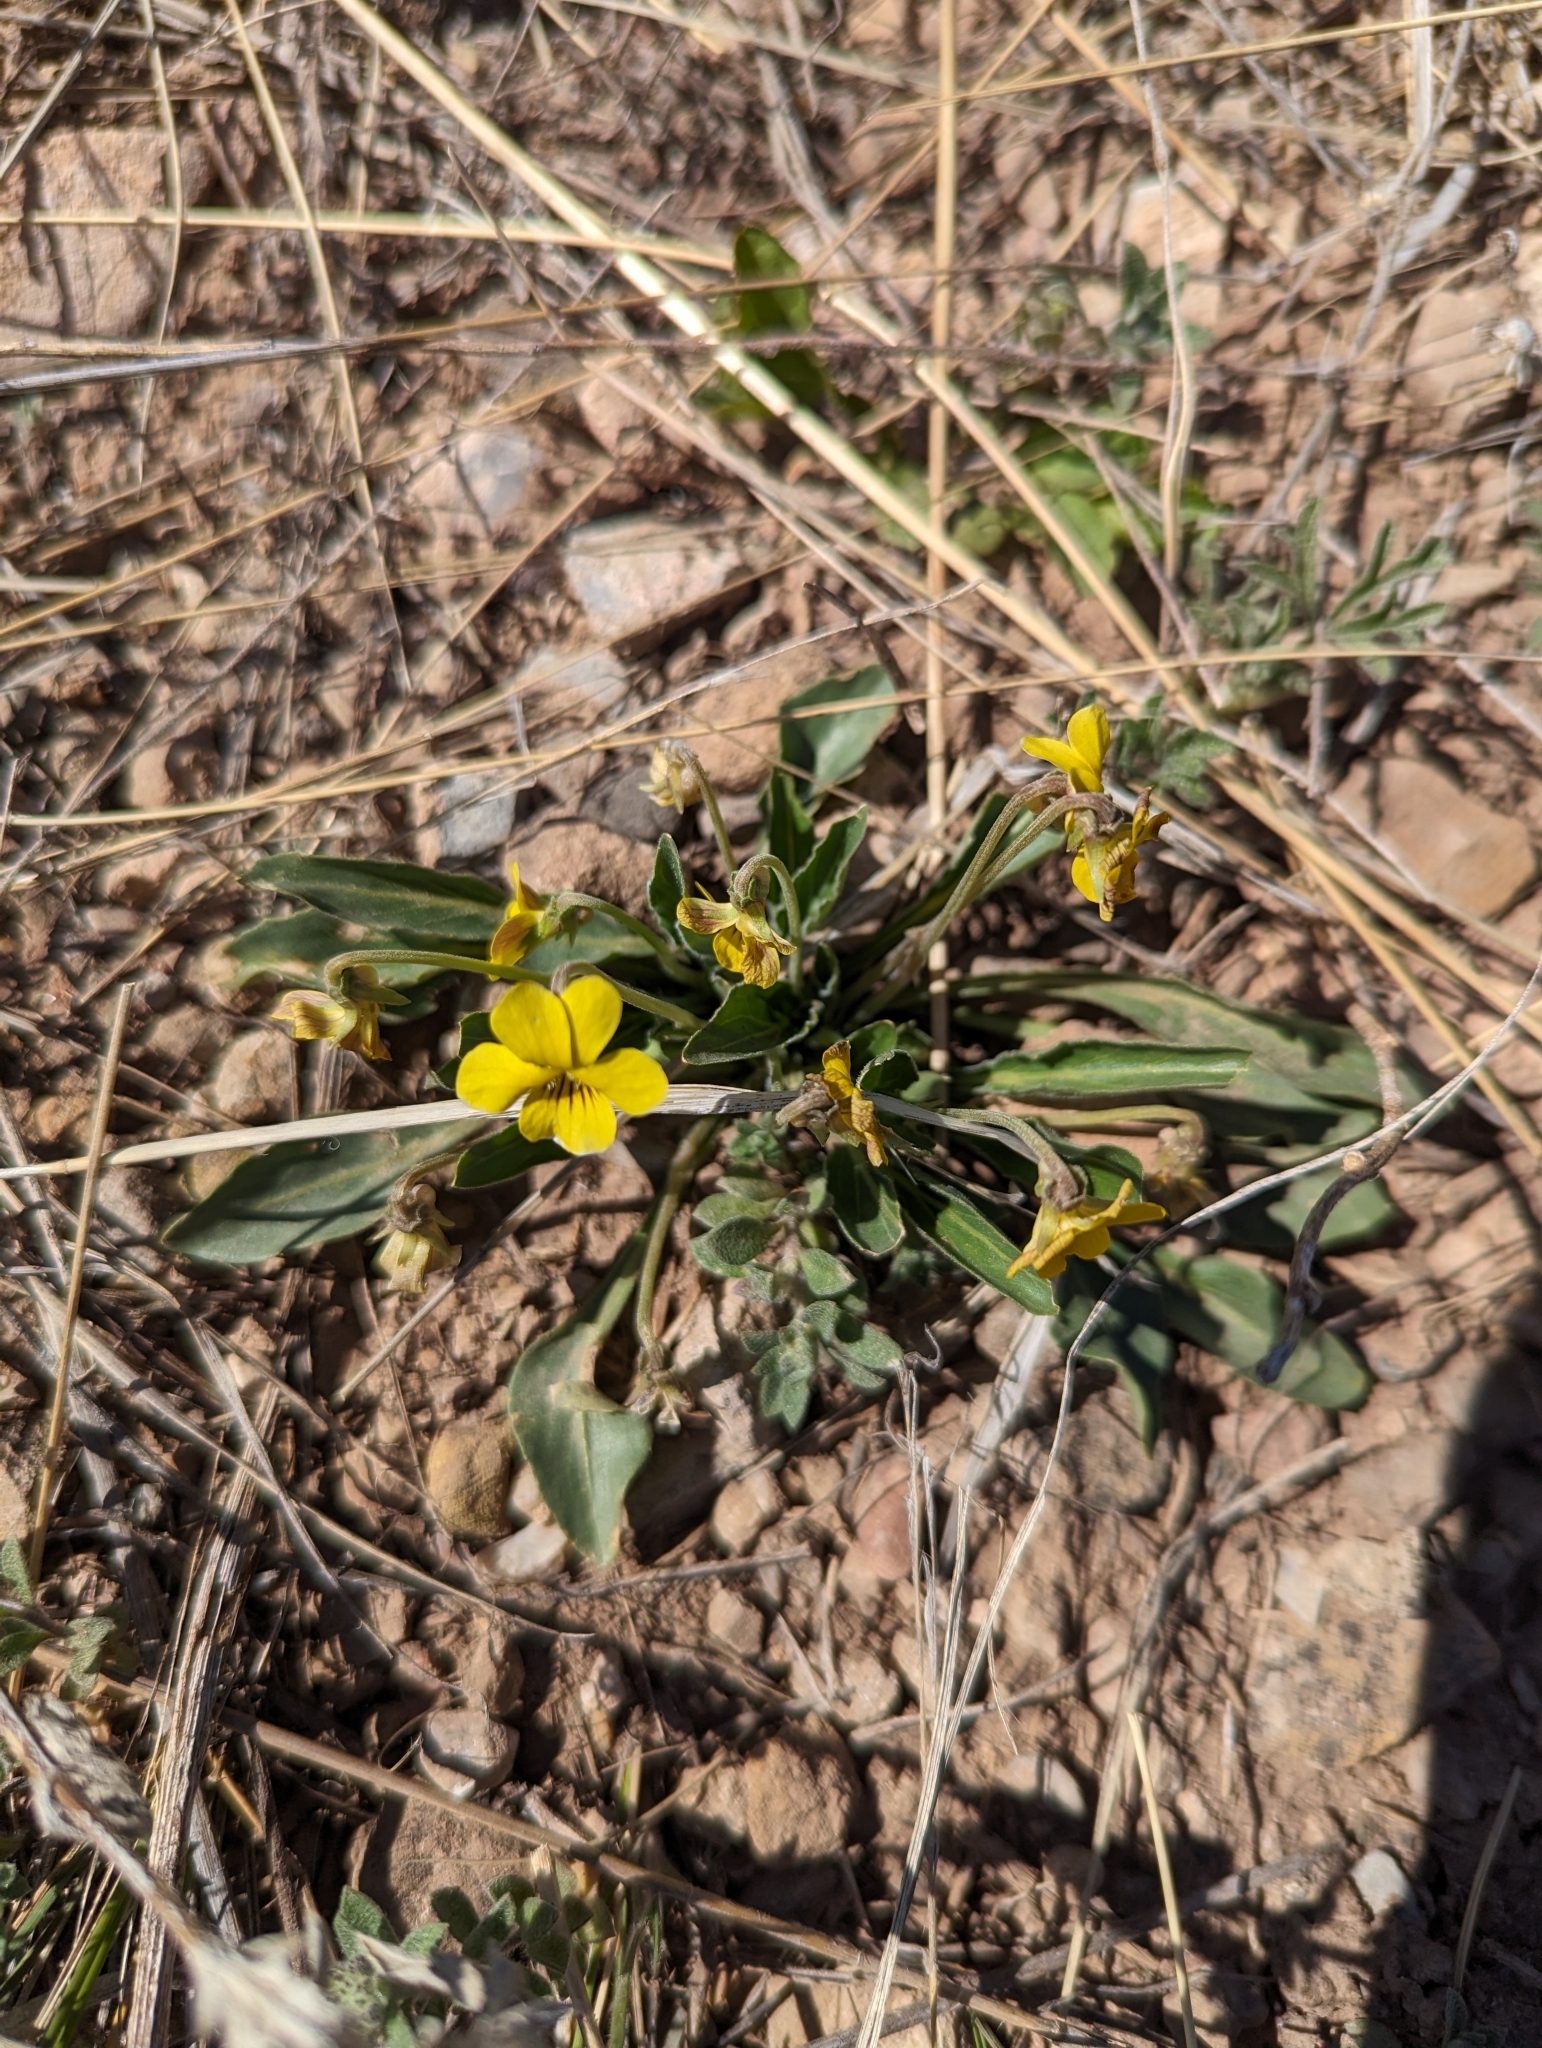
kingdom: Plantae
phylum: Tracheophyta
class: Magnoliopsida
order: Malpighiales
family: Violaceae
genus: Viola
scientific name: Viola nuttallii
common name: Yellow prairie violet
